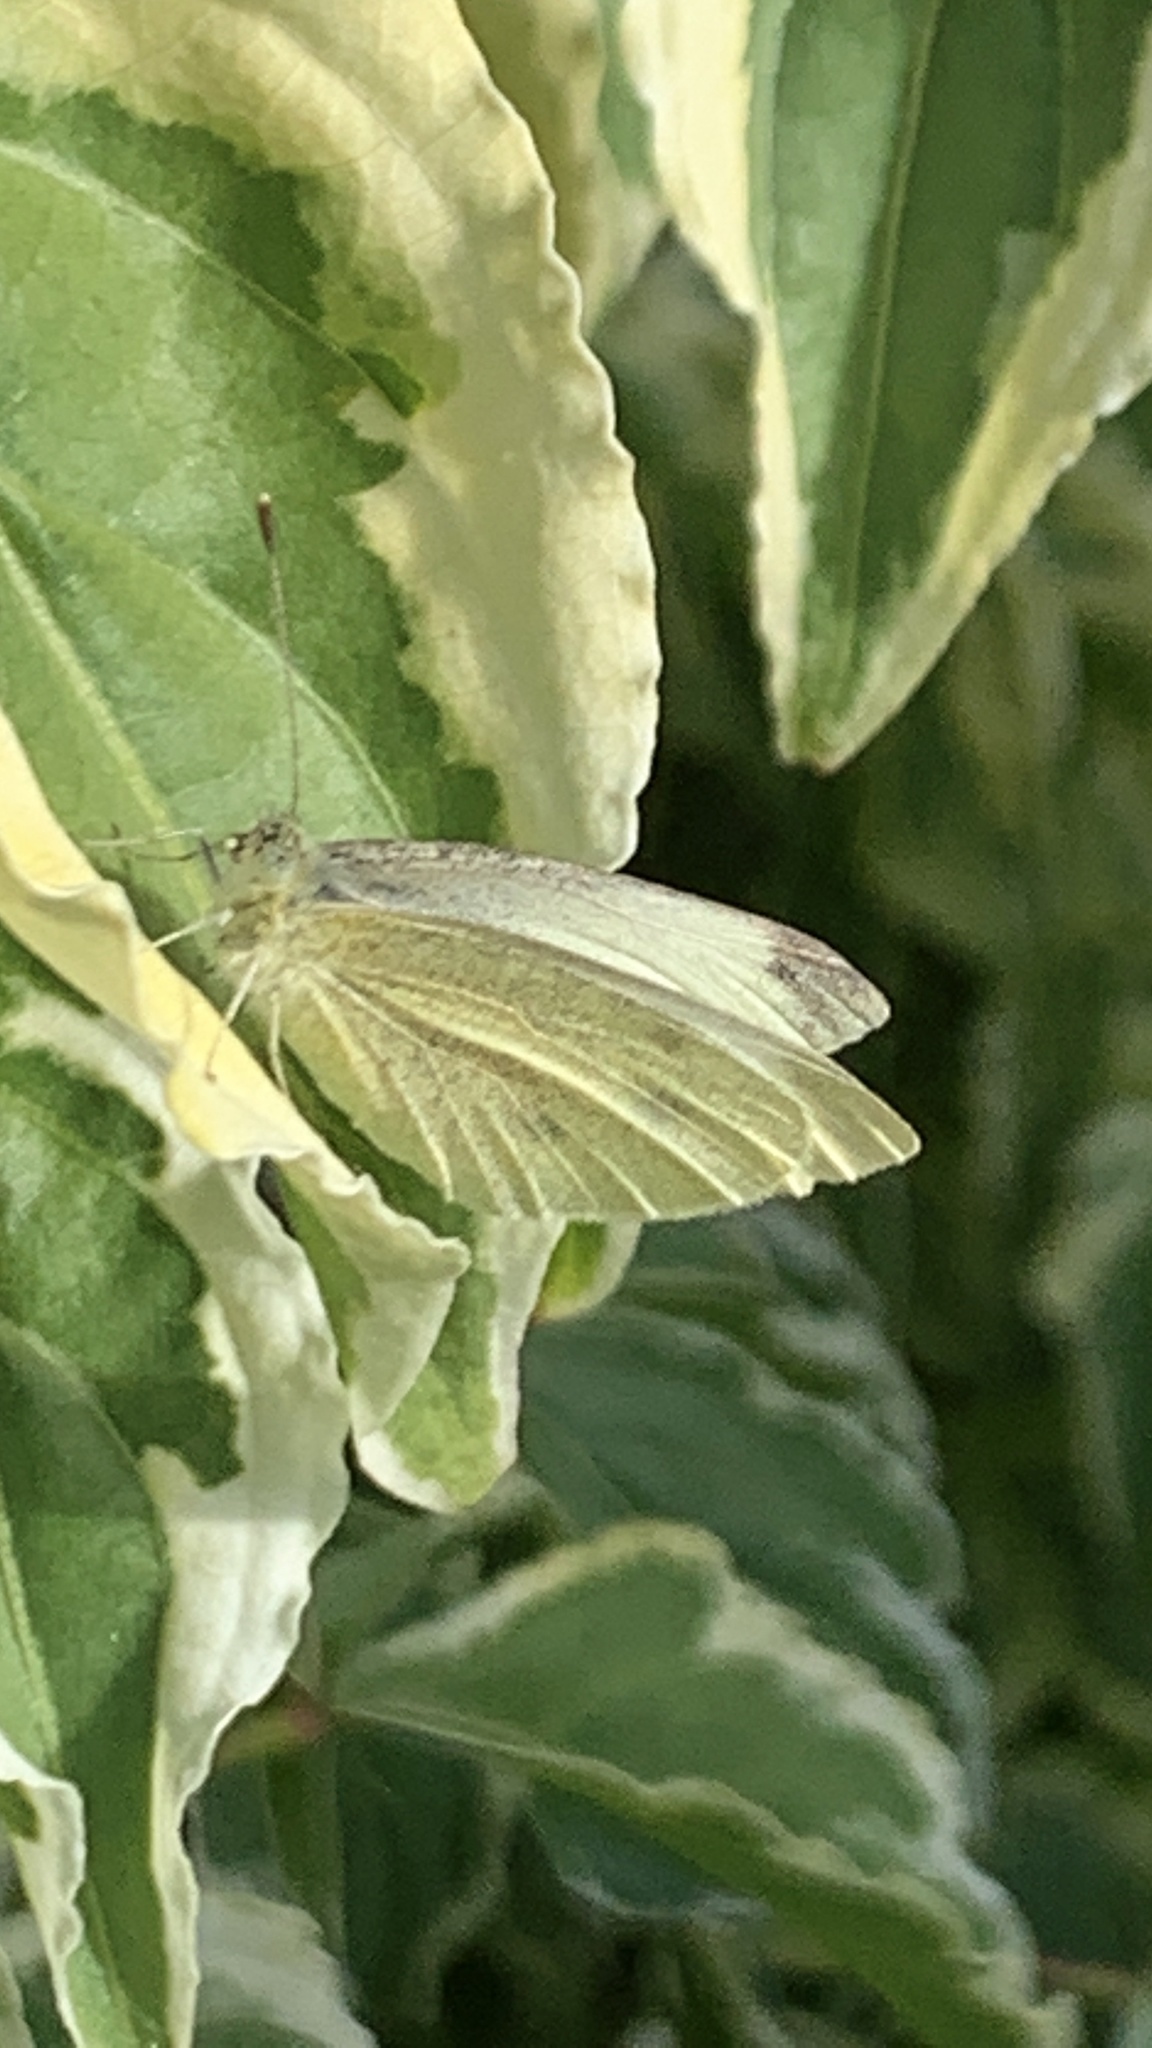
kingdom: Animalia
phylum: Arthropoda
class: Insecta
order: Lepidoptera
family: Pieridae
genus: Pieris
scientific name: Pieris rapae
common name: Small white
